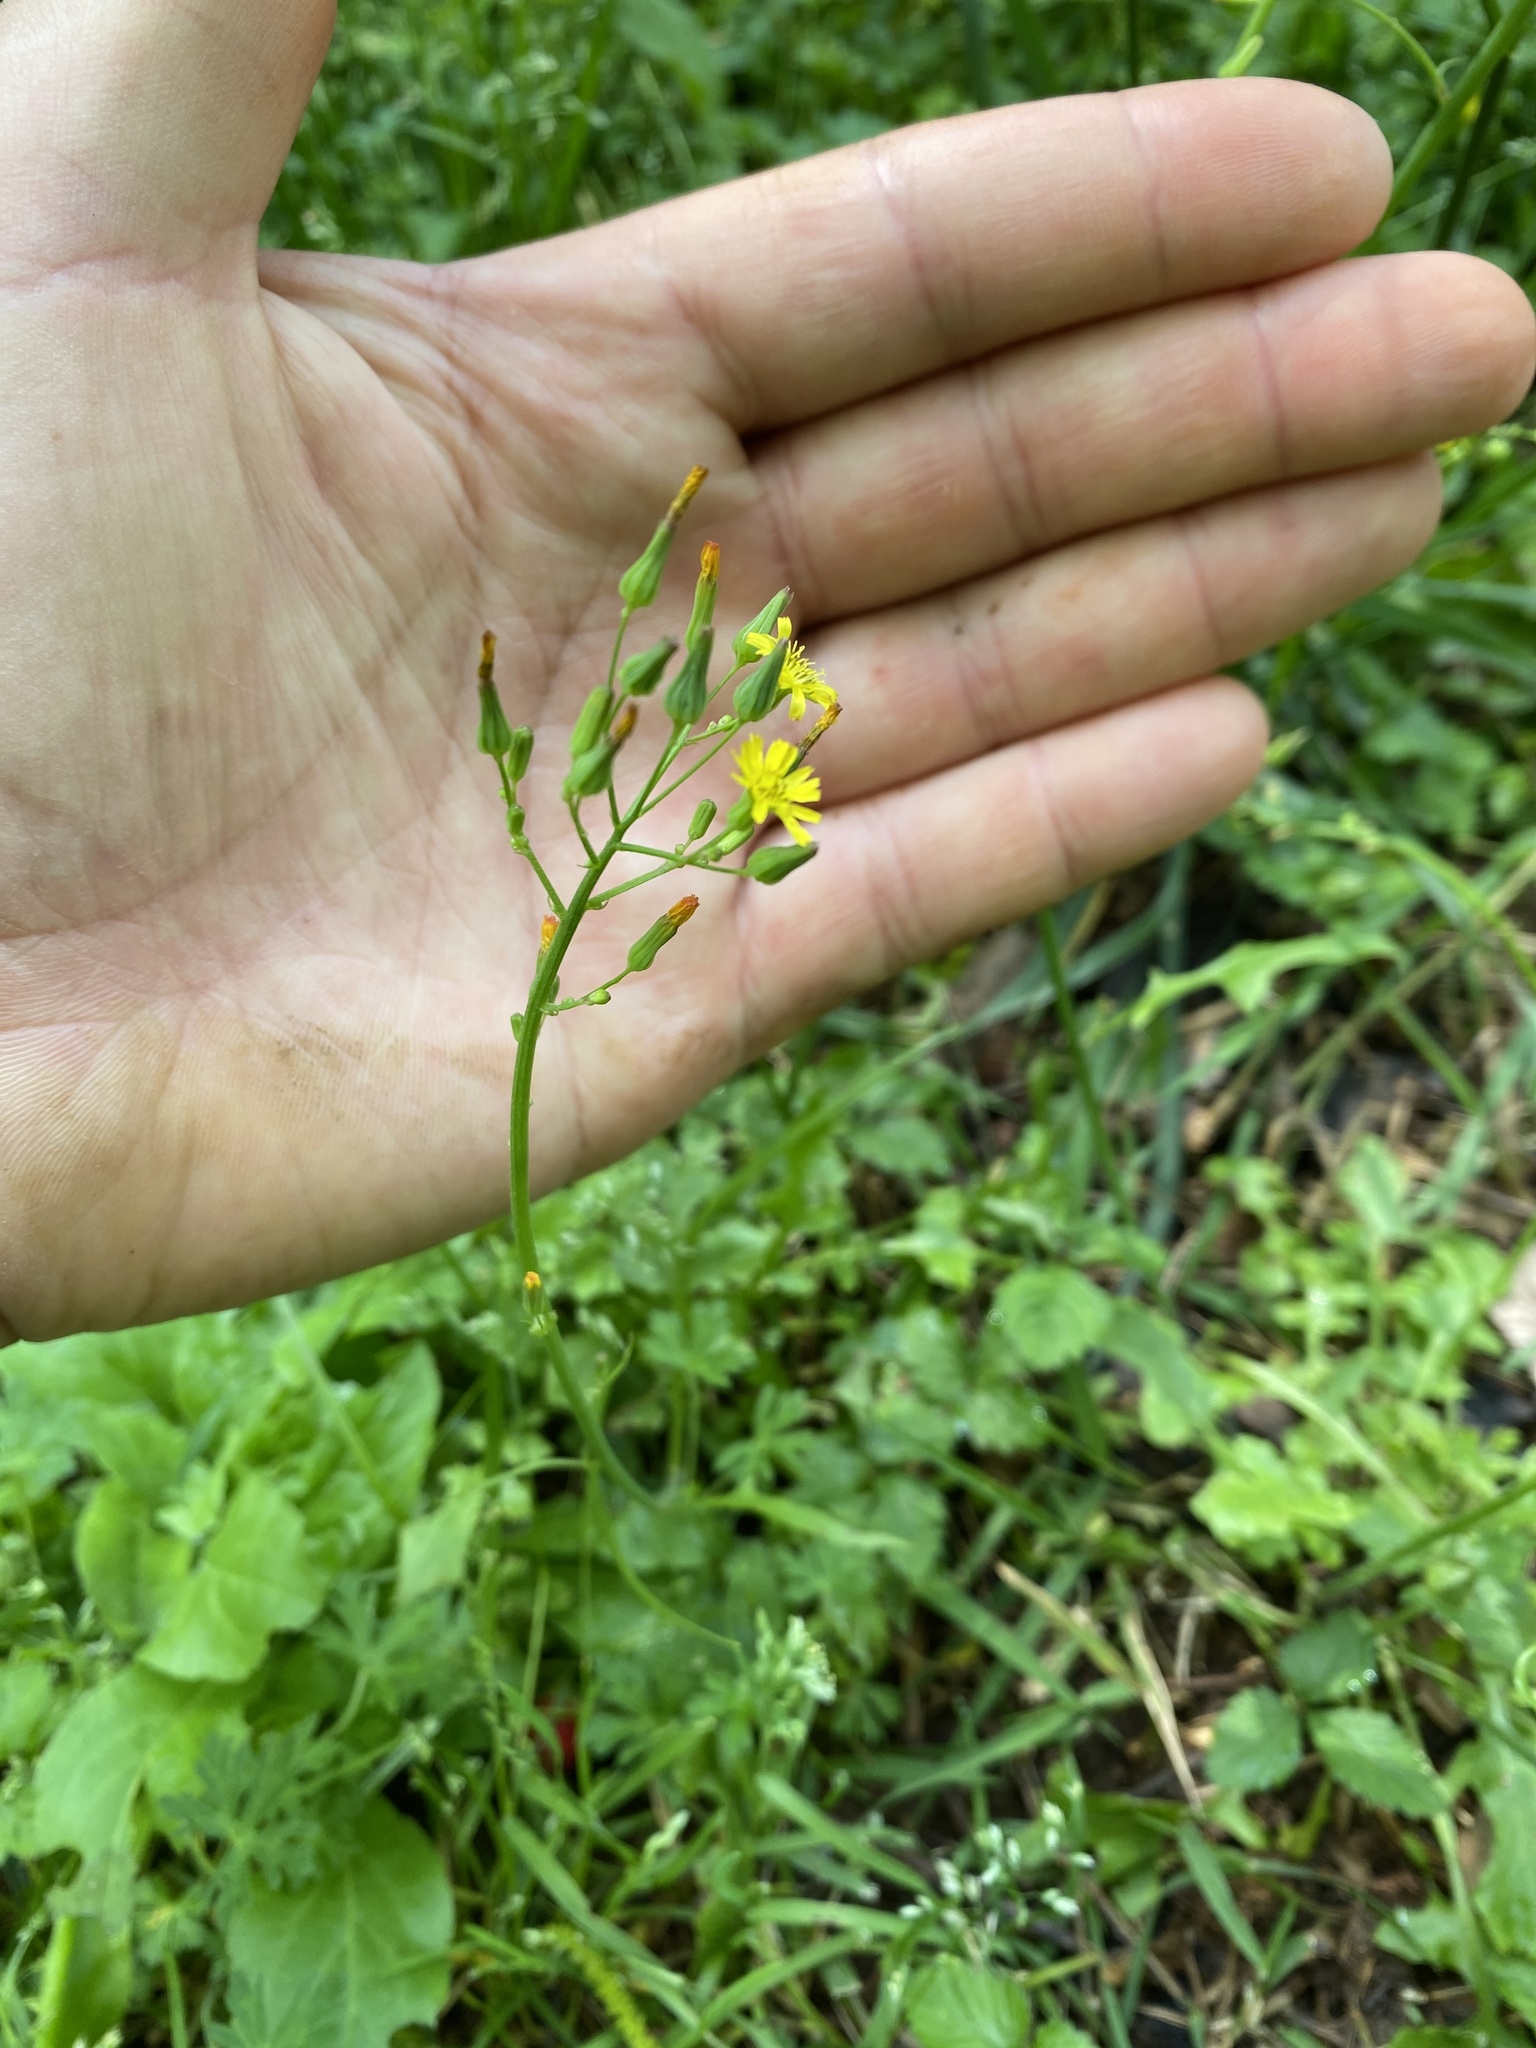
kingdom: Plantae
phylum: Tracheophyta
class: Magnoliopsida
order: Asterales
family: Asteraceae
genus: Youngia
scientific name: Youngia japonica
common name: Oriental false hawksbeard
